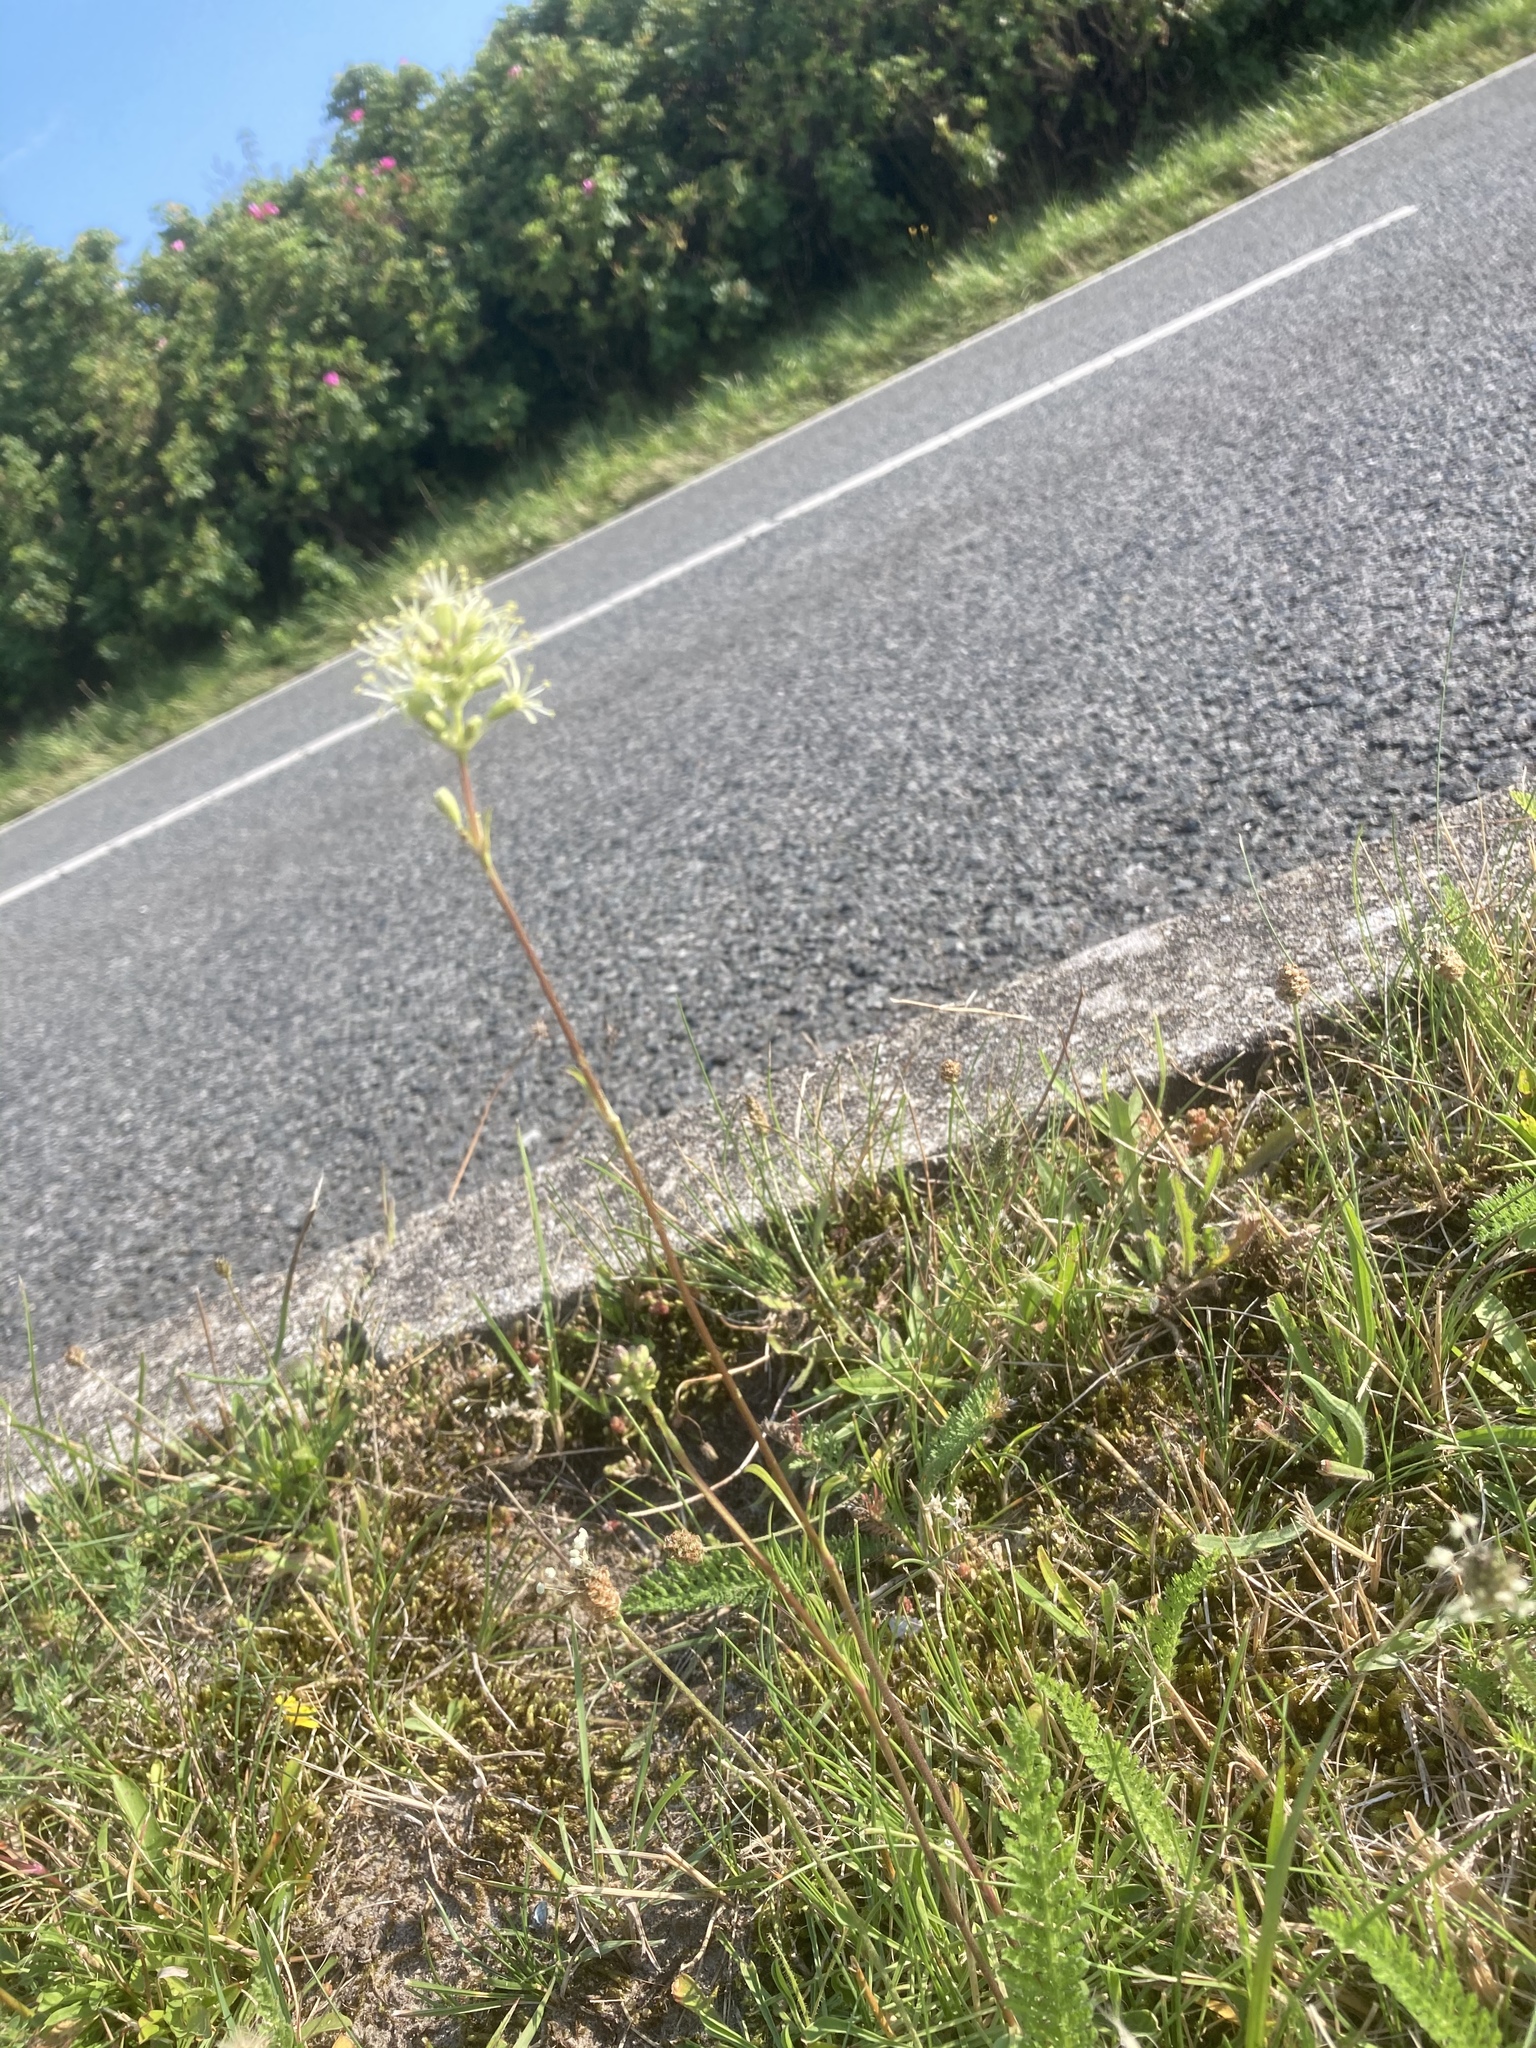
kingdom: Plantae
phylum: Tracheophyta
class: Magnoliopsida
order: Caryophyllales
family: Caryophyllaceae
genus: Silene
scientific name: Silene otites
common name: Spanish catchfly
